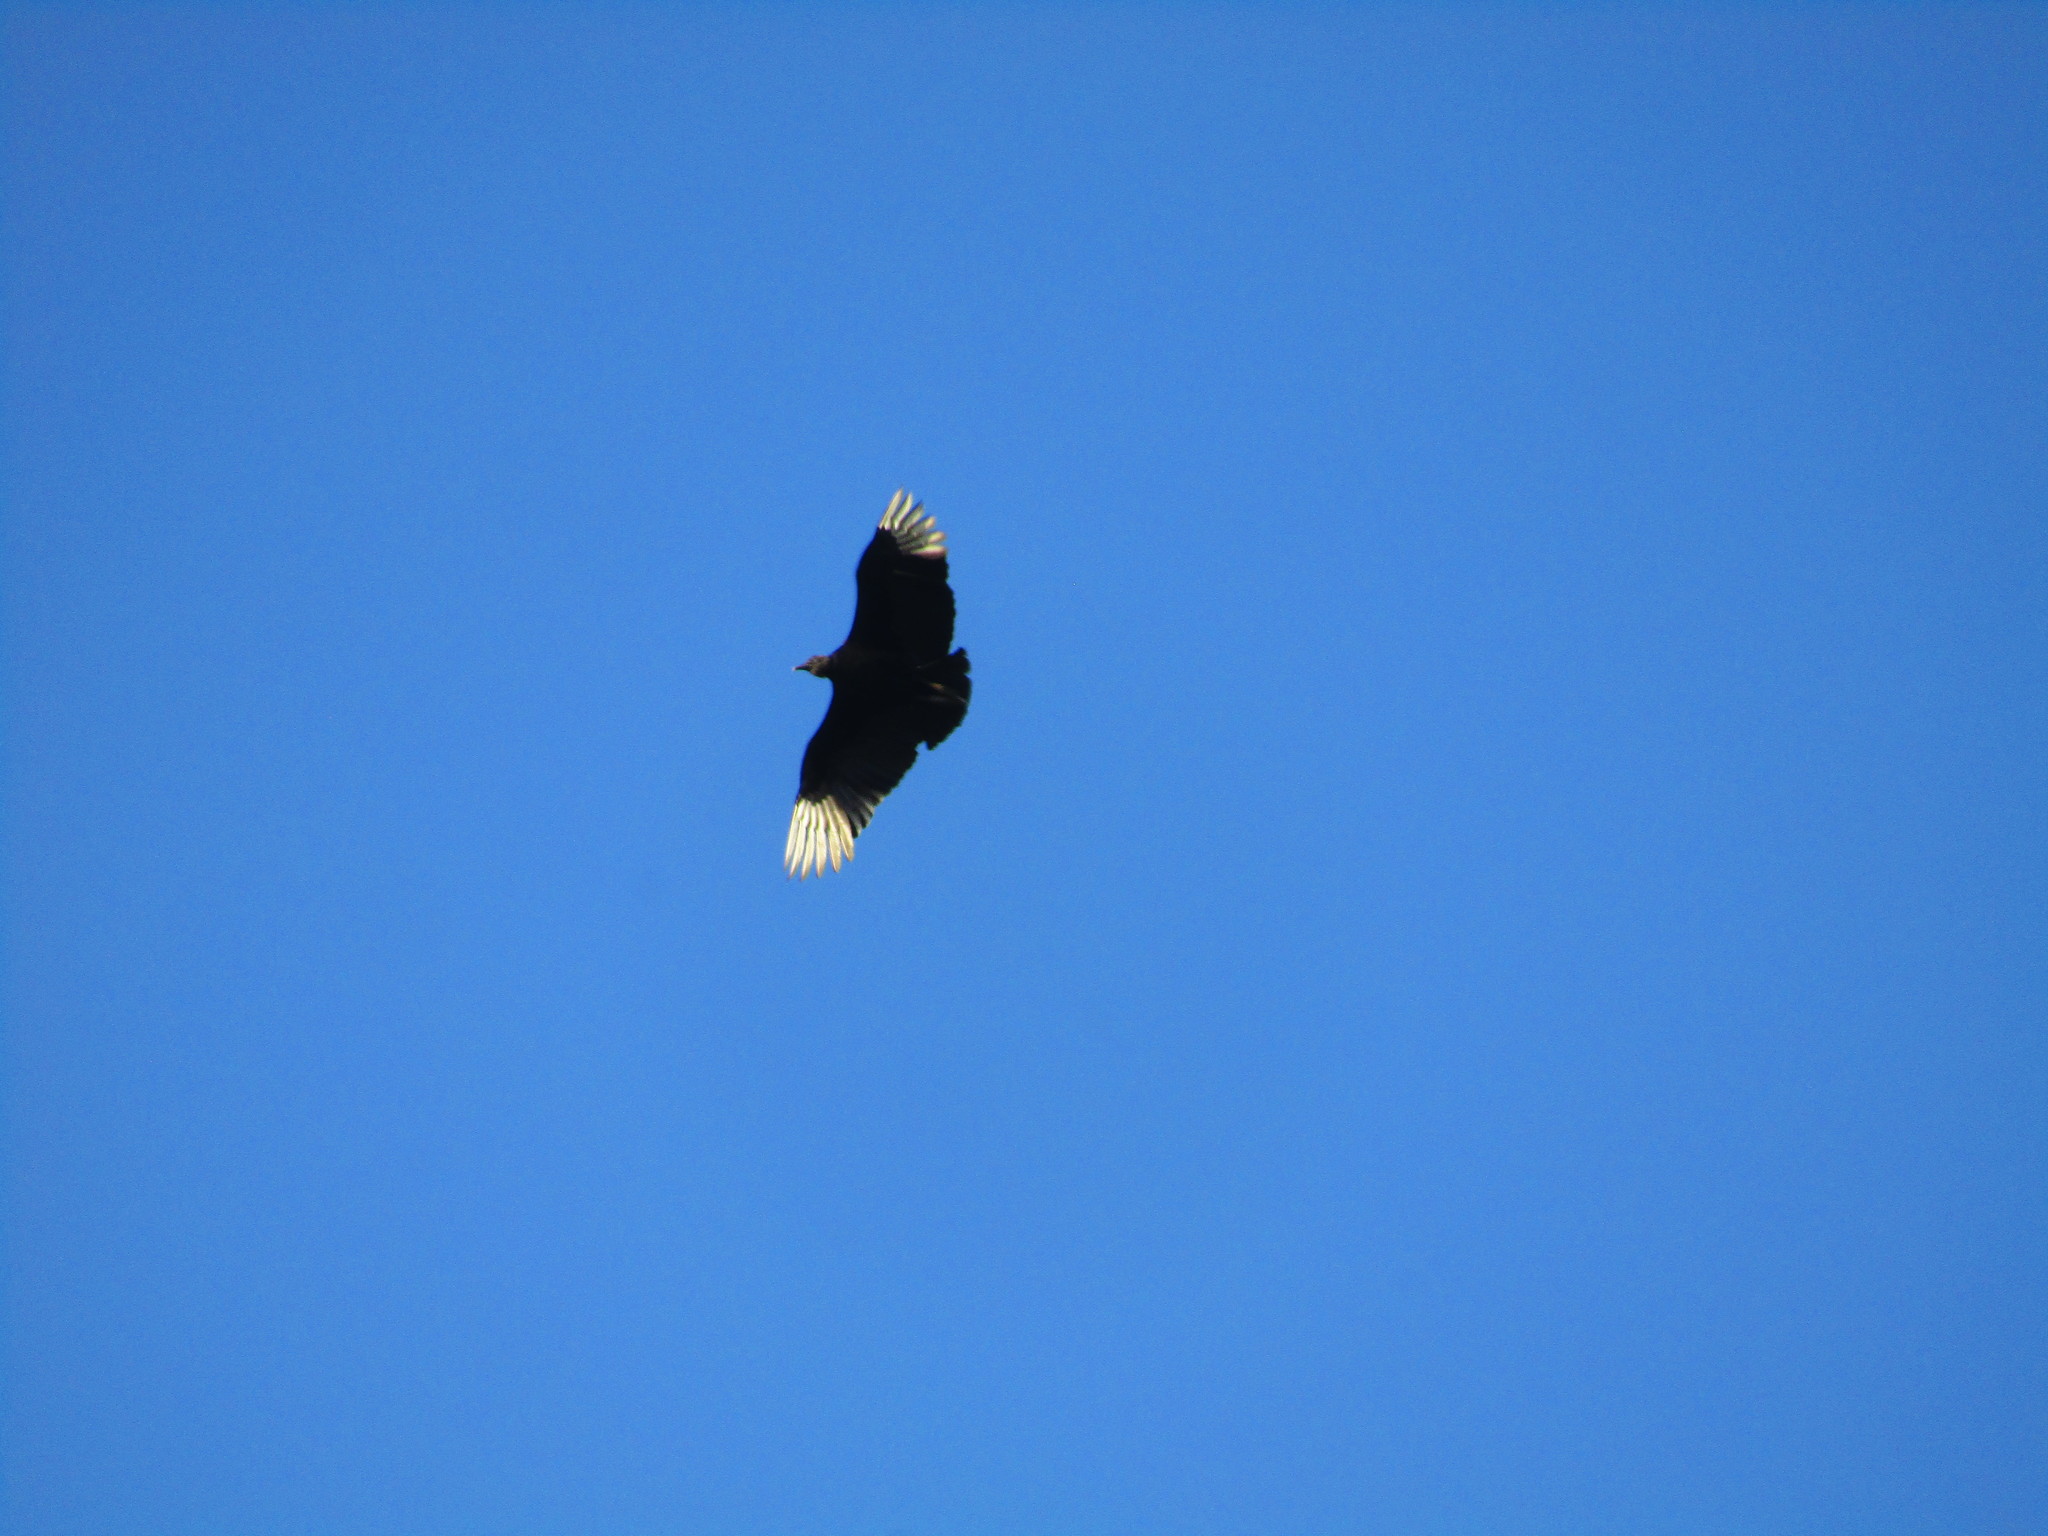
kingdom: Animalia
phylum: Chordata
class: Aves
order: Accipitriformes
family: Cathartidae
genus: Coragyps
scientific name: Coragyps atratus
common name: Black vulture
